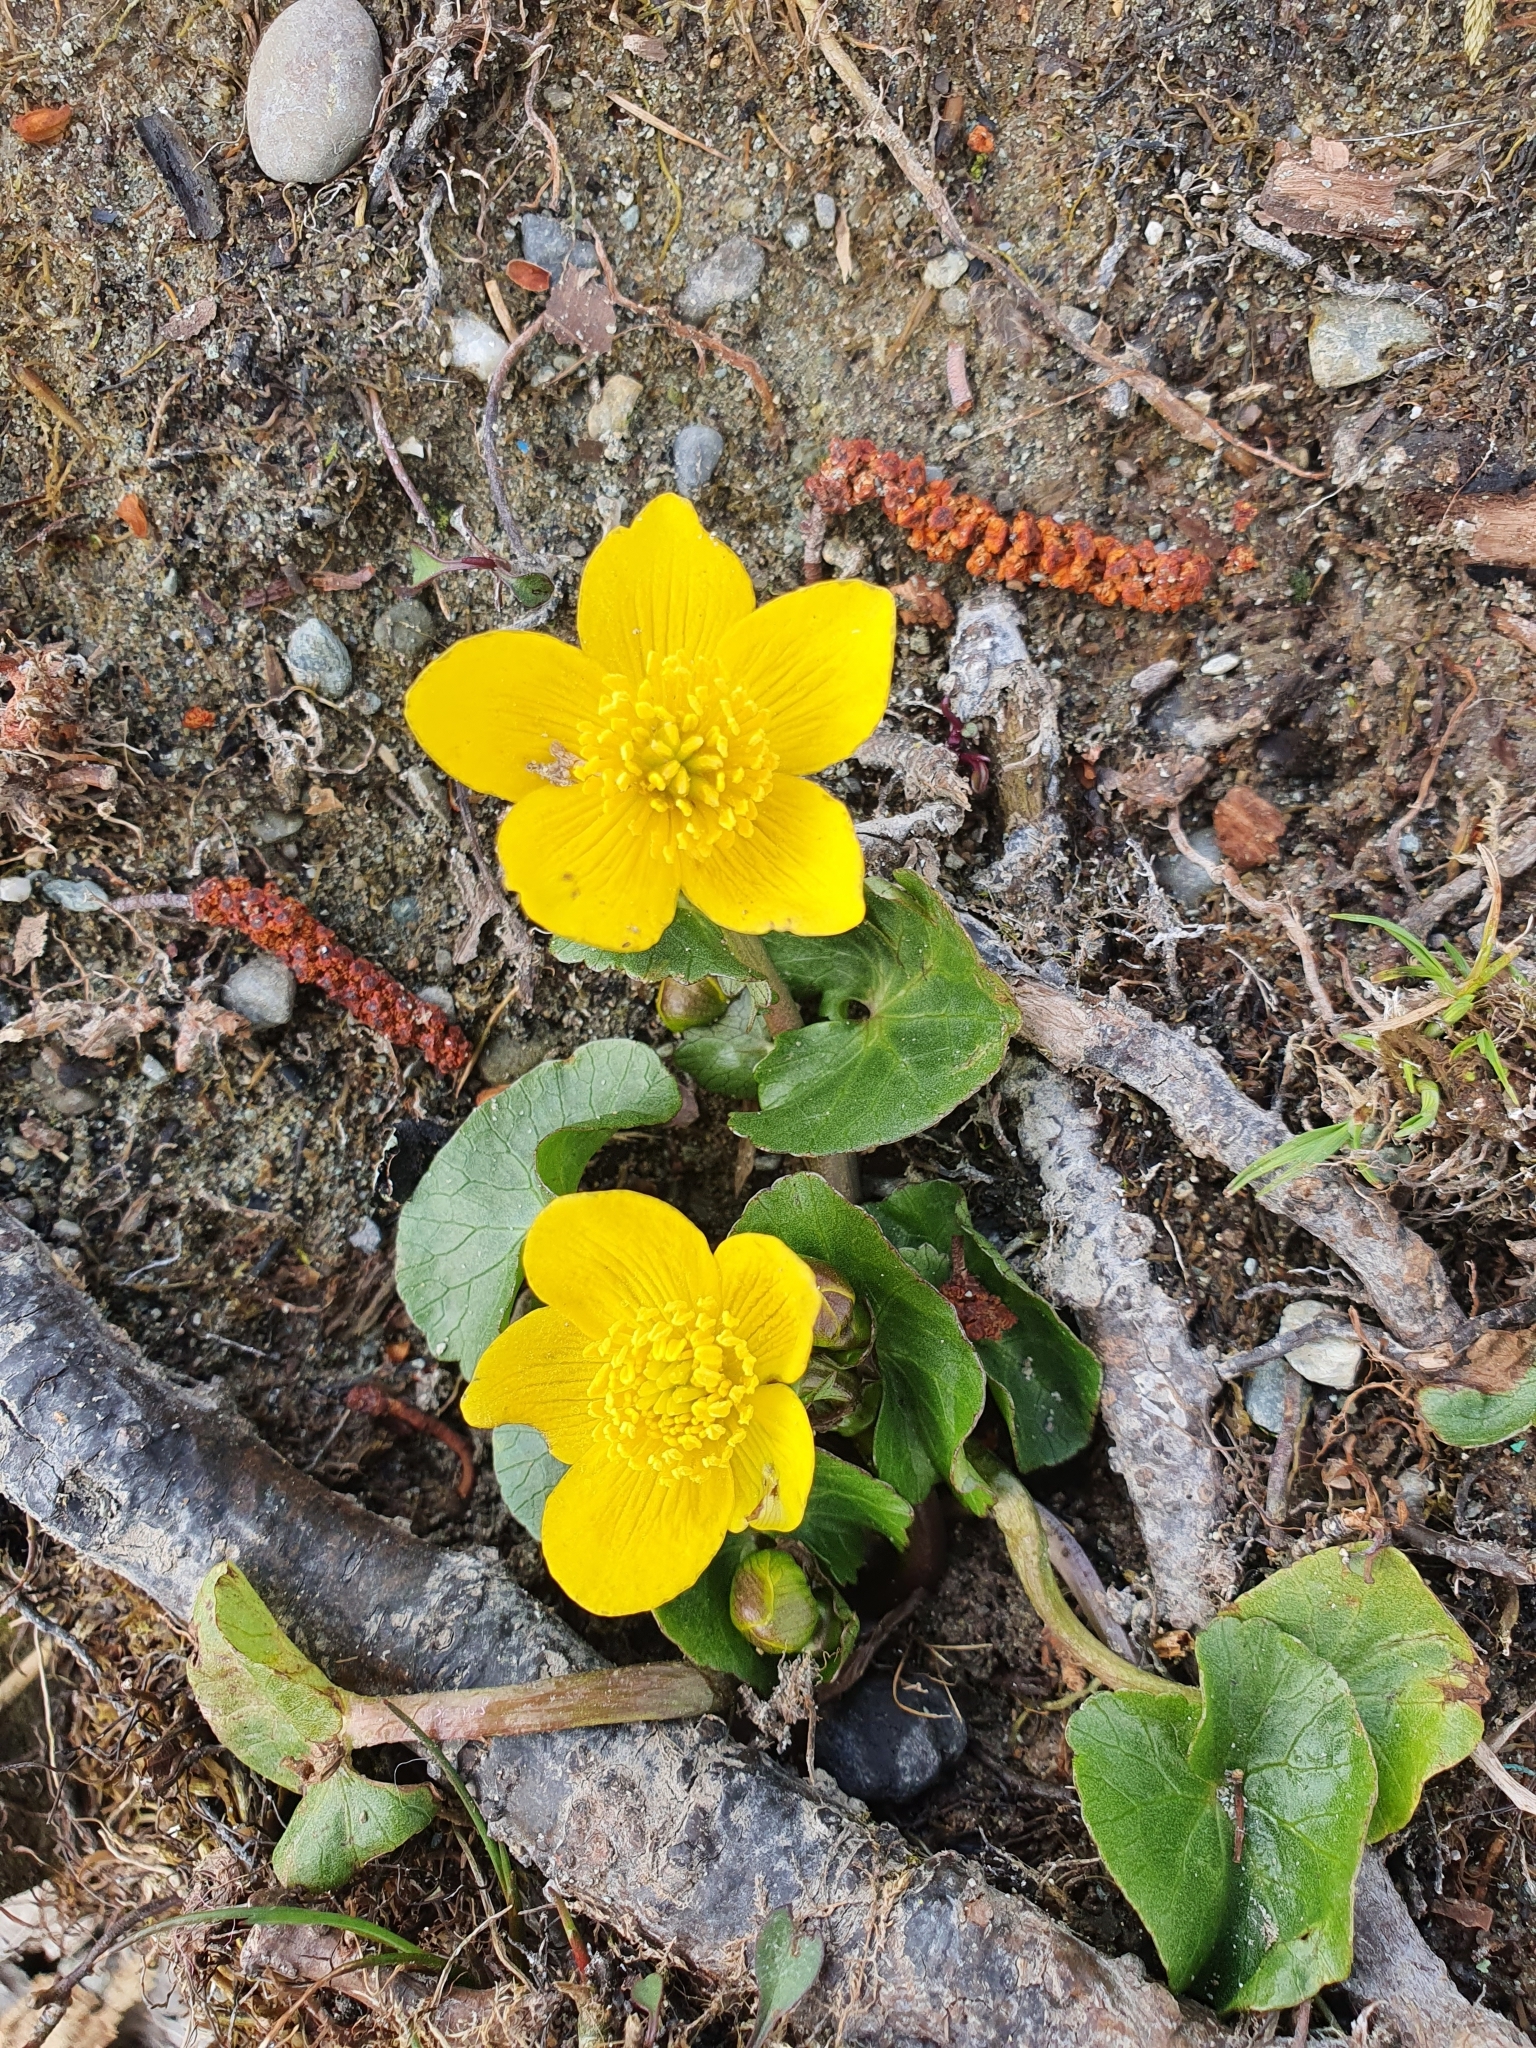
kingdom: Plantae
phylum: Tracheophyta
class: Magnoliopsida
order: Ranunculales
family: Ranunculaceae
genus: Caltha
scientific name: Caltha palustris
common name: Marsh marigold
